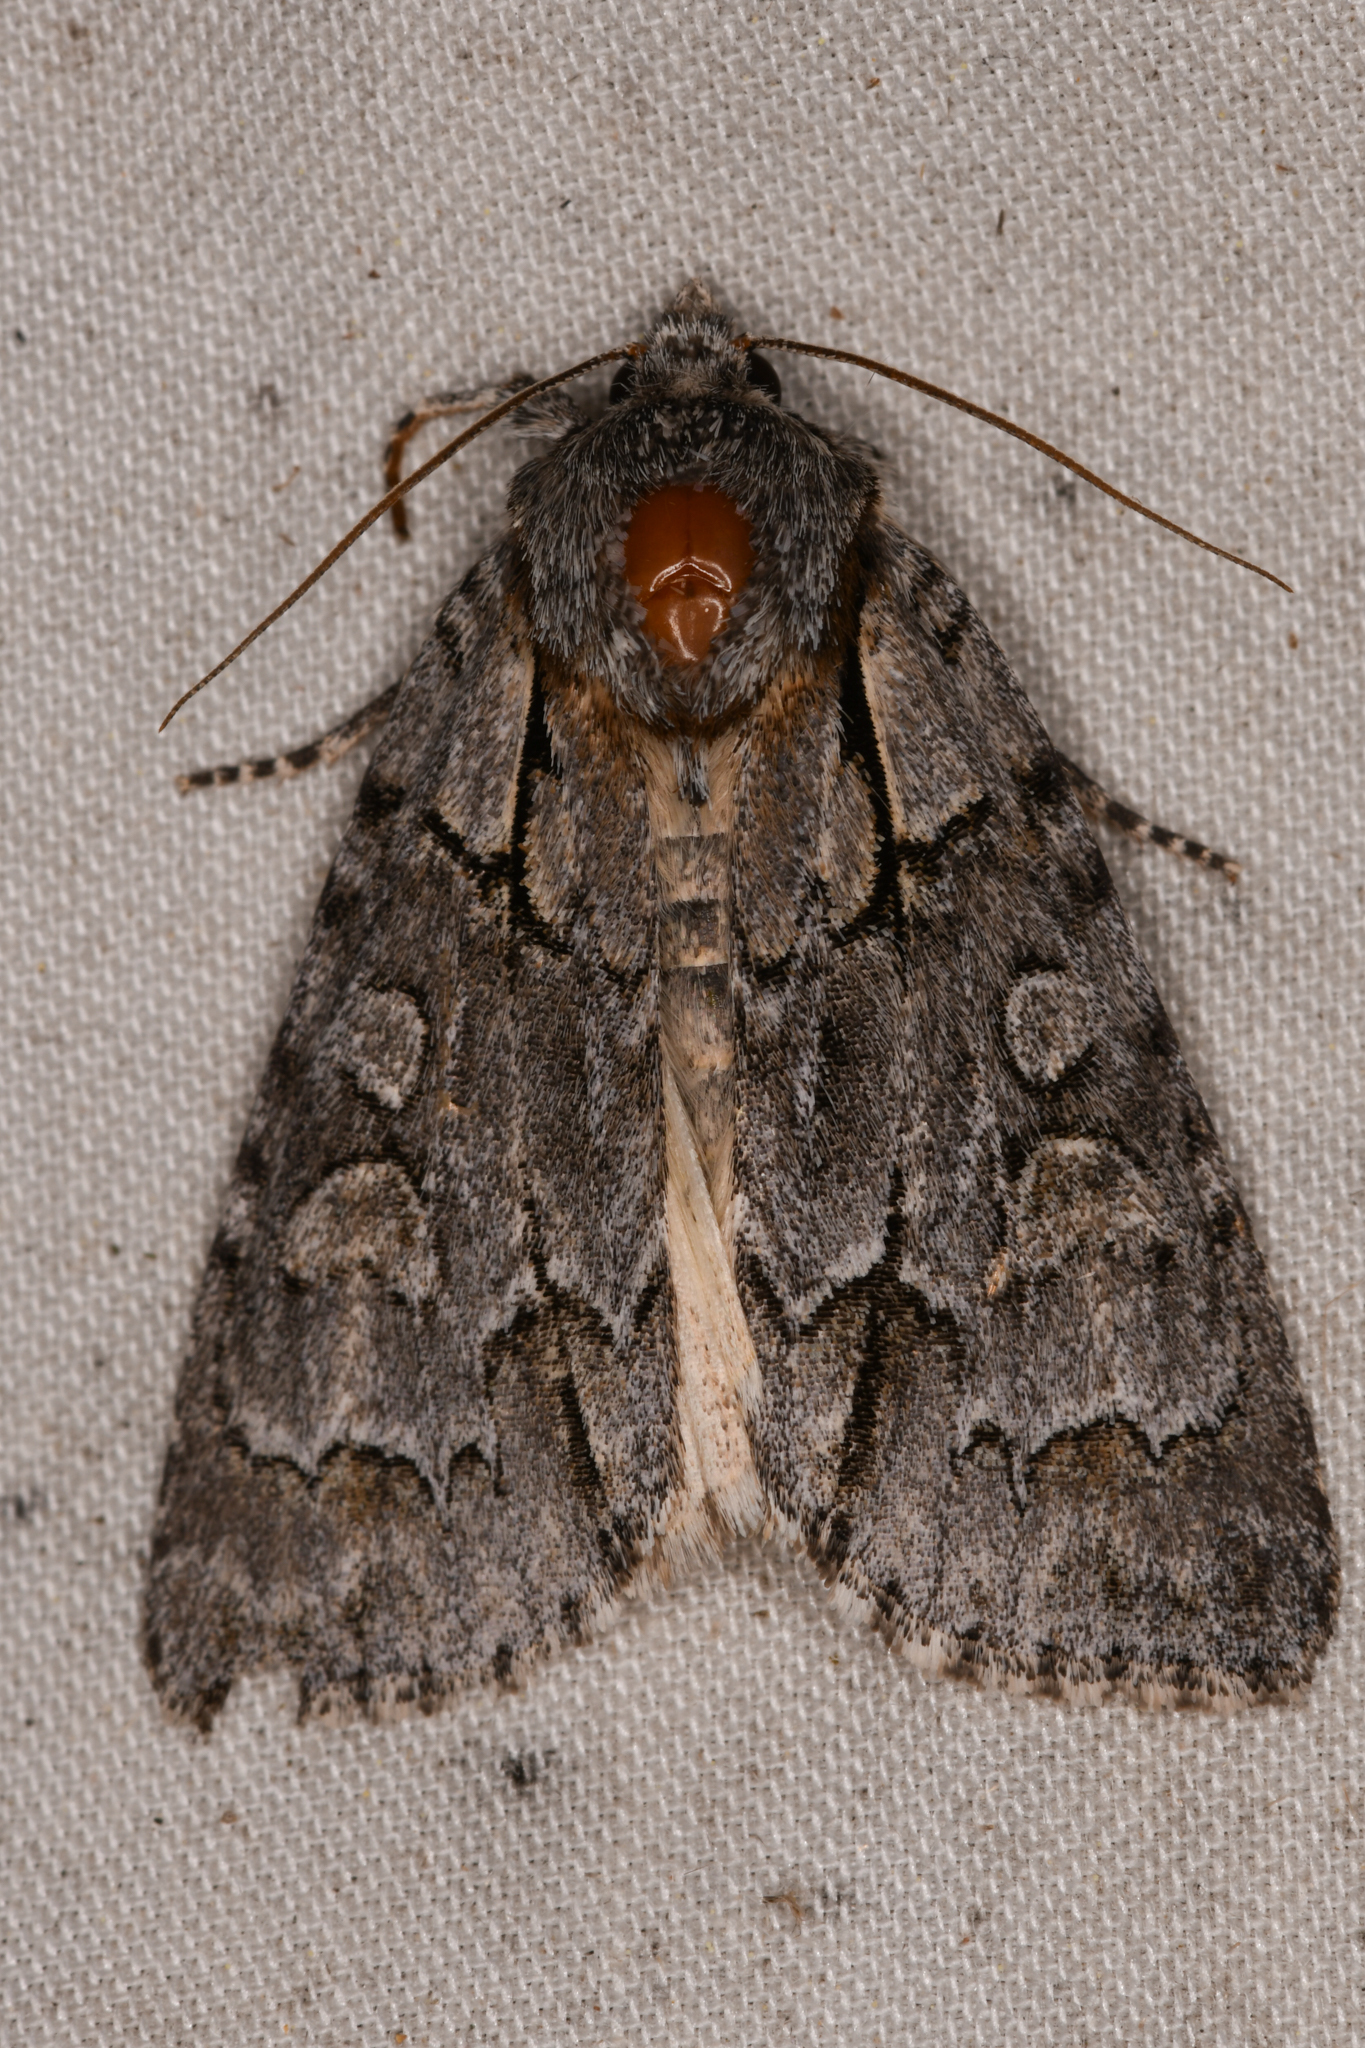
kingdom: Animalia
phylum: Arthropoda
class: Insecta
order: Lepidoptera
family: Noctuidae
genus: Acronicta
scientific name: Acronicta grisea
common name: Gray dagger
